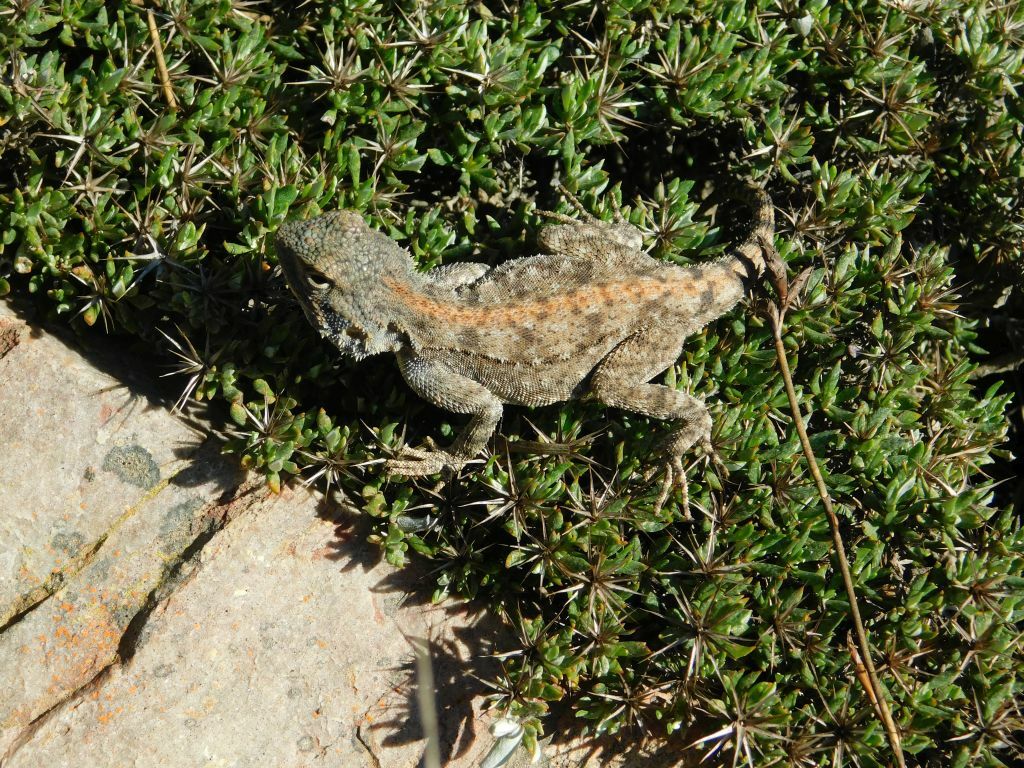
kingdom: Animalia
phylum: Chordata
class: Squamata
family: Agamidae
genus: Agama
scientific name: Agama atra
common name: Southern african rock agama
